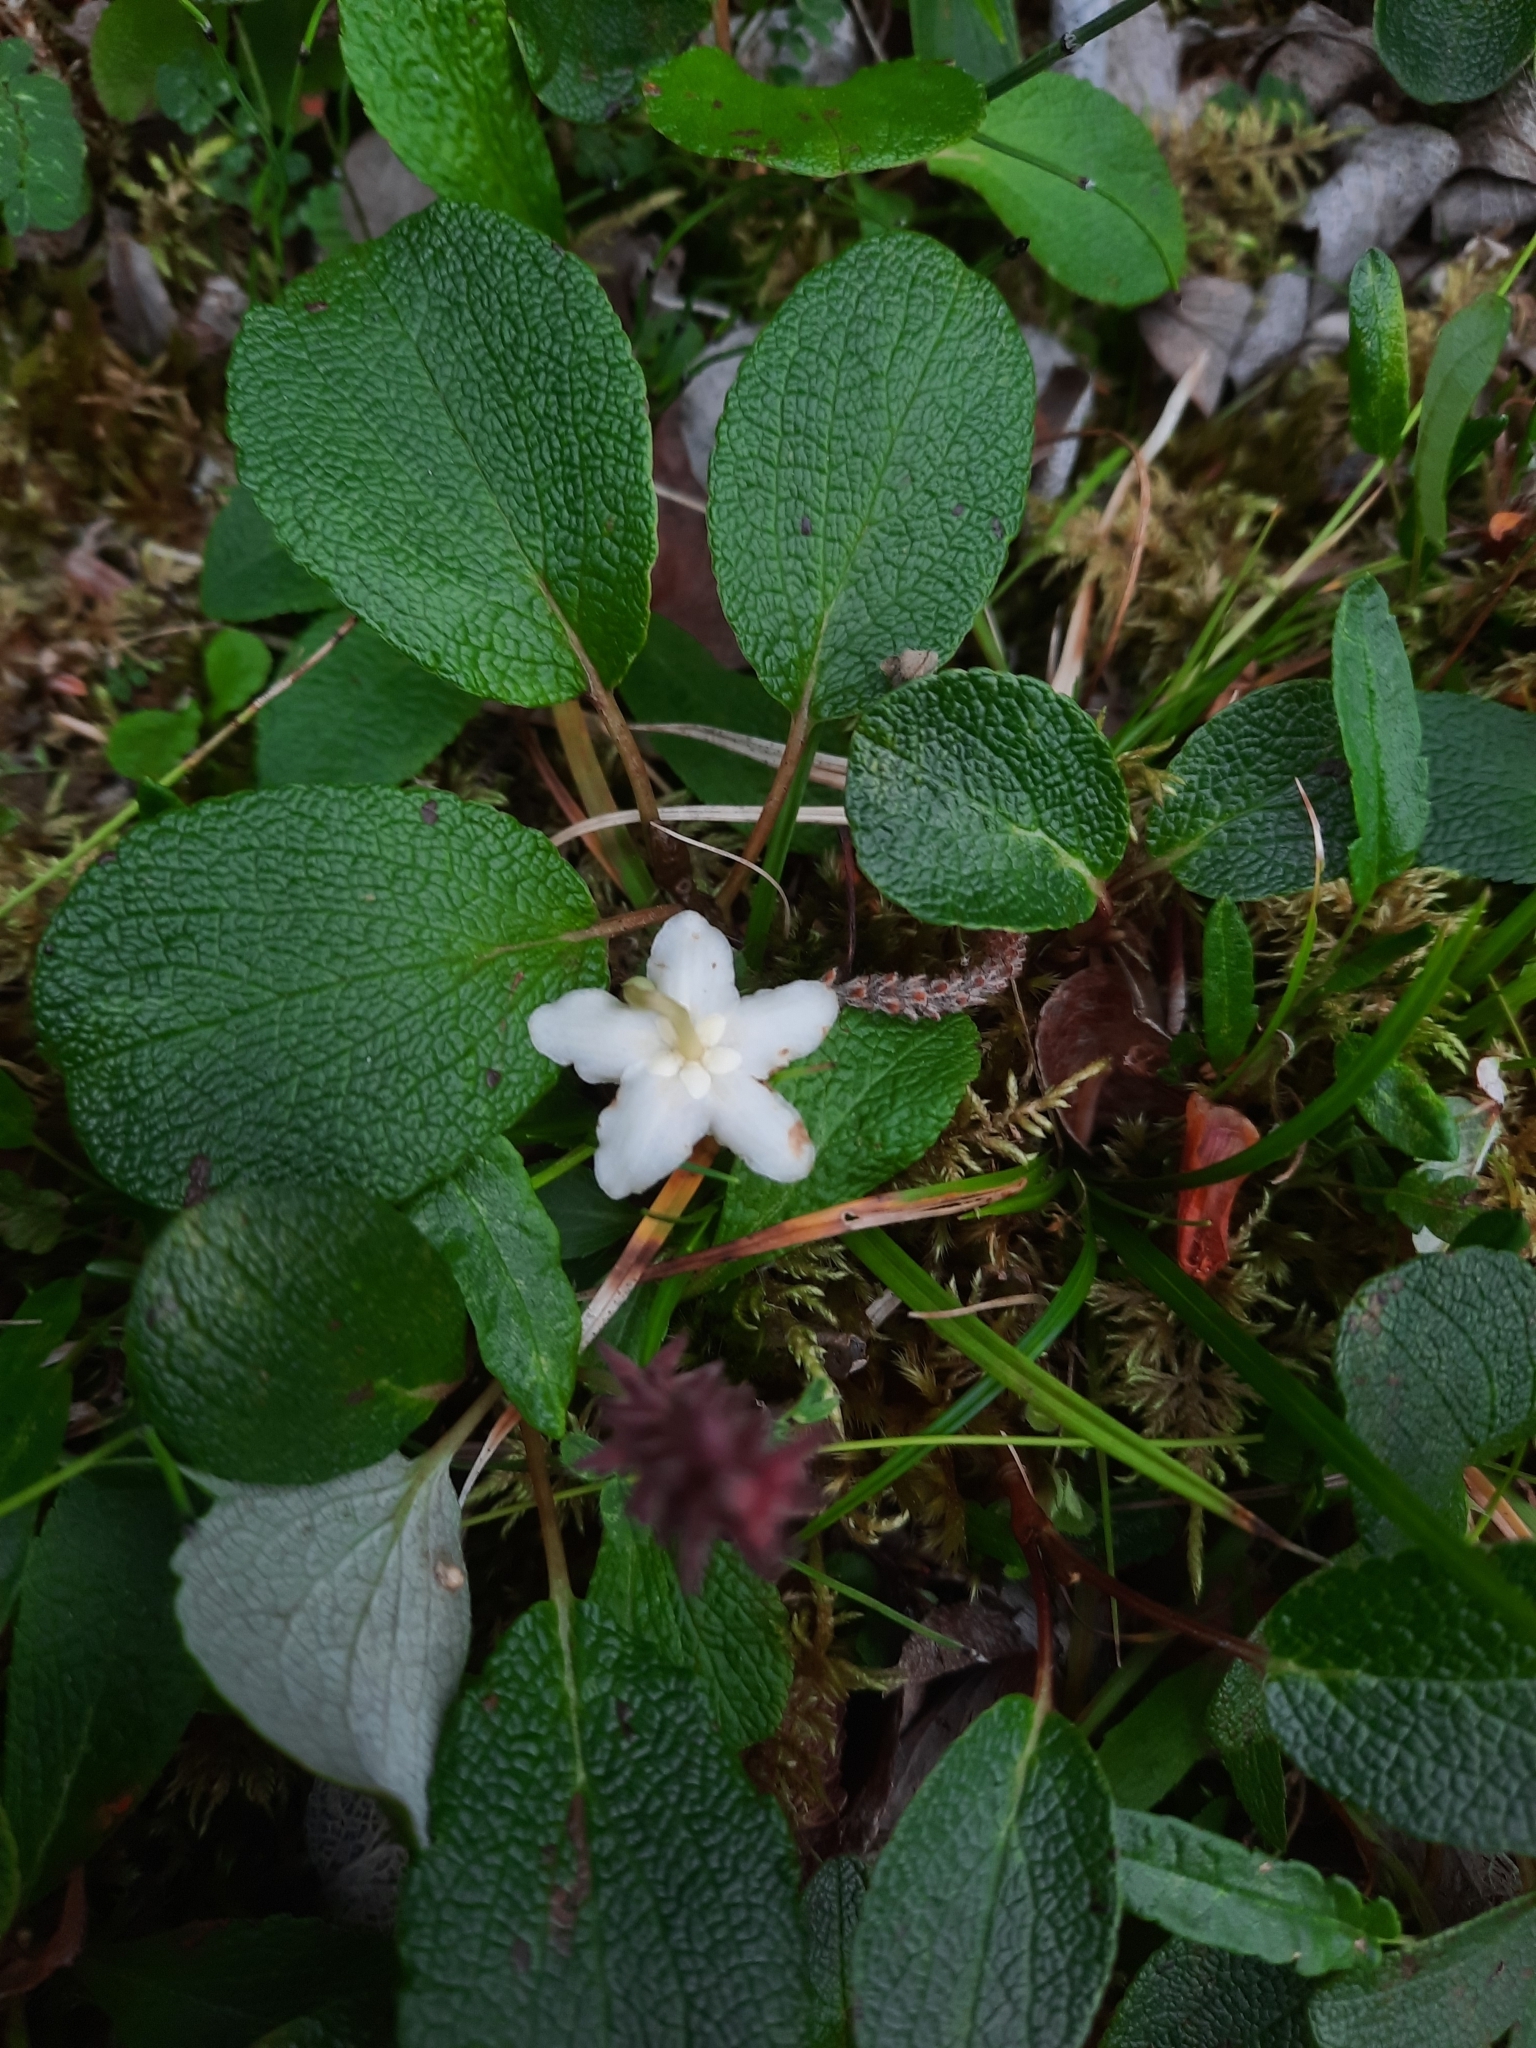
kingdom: Plantae
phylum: Tracheophyta
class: Magnoliopsida
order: Ericales
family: Ericaceae
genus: Moneses
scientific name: Moneses uniflora
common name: One-flowered wintergreen
